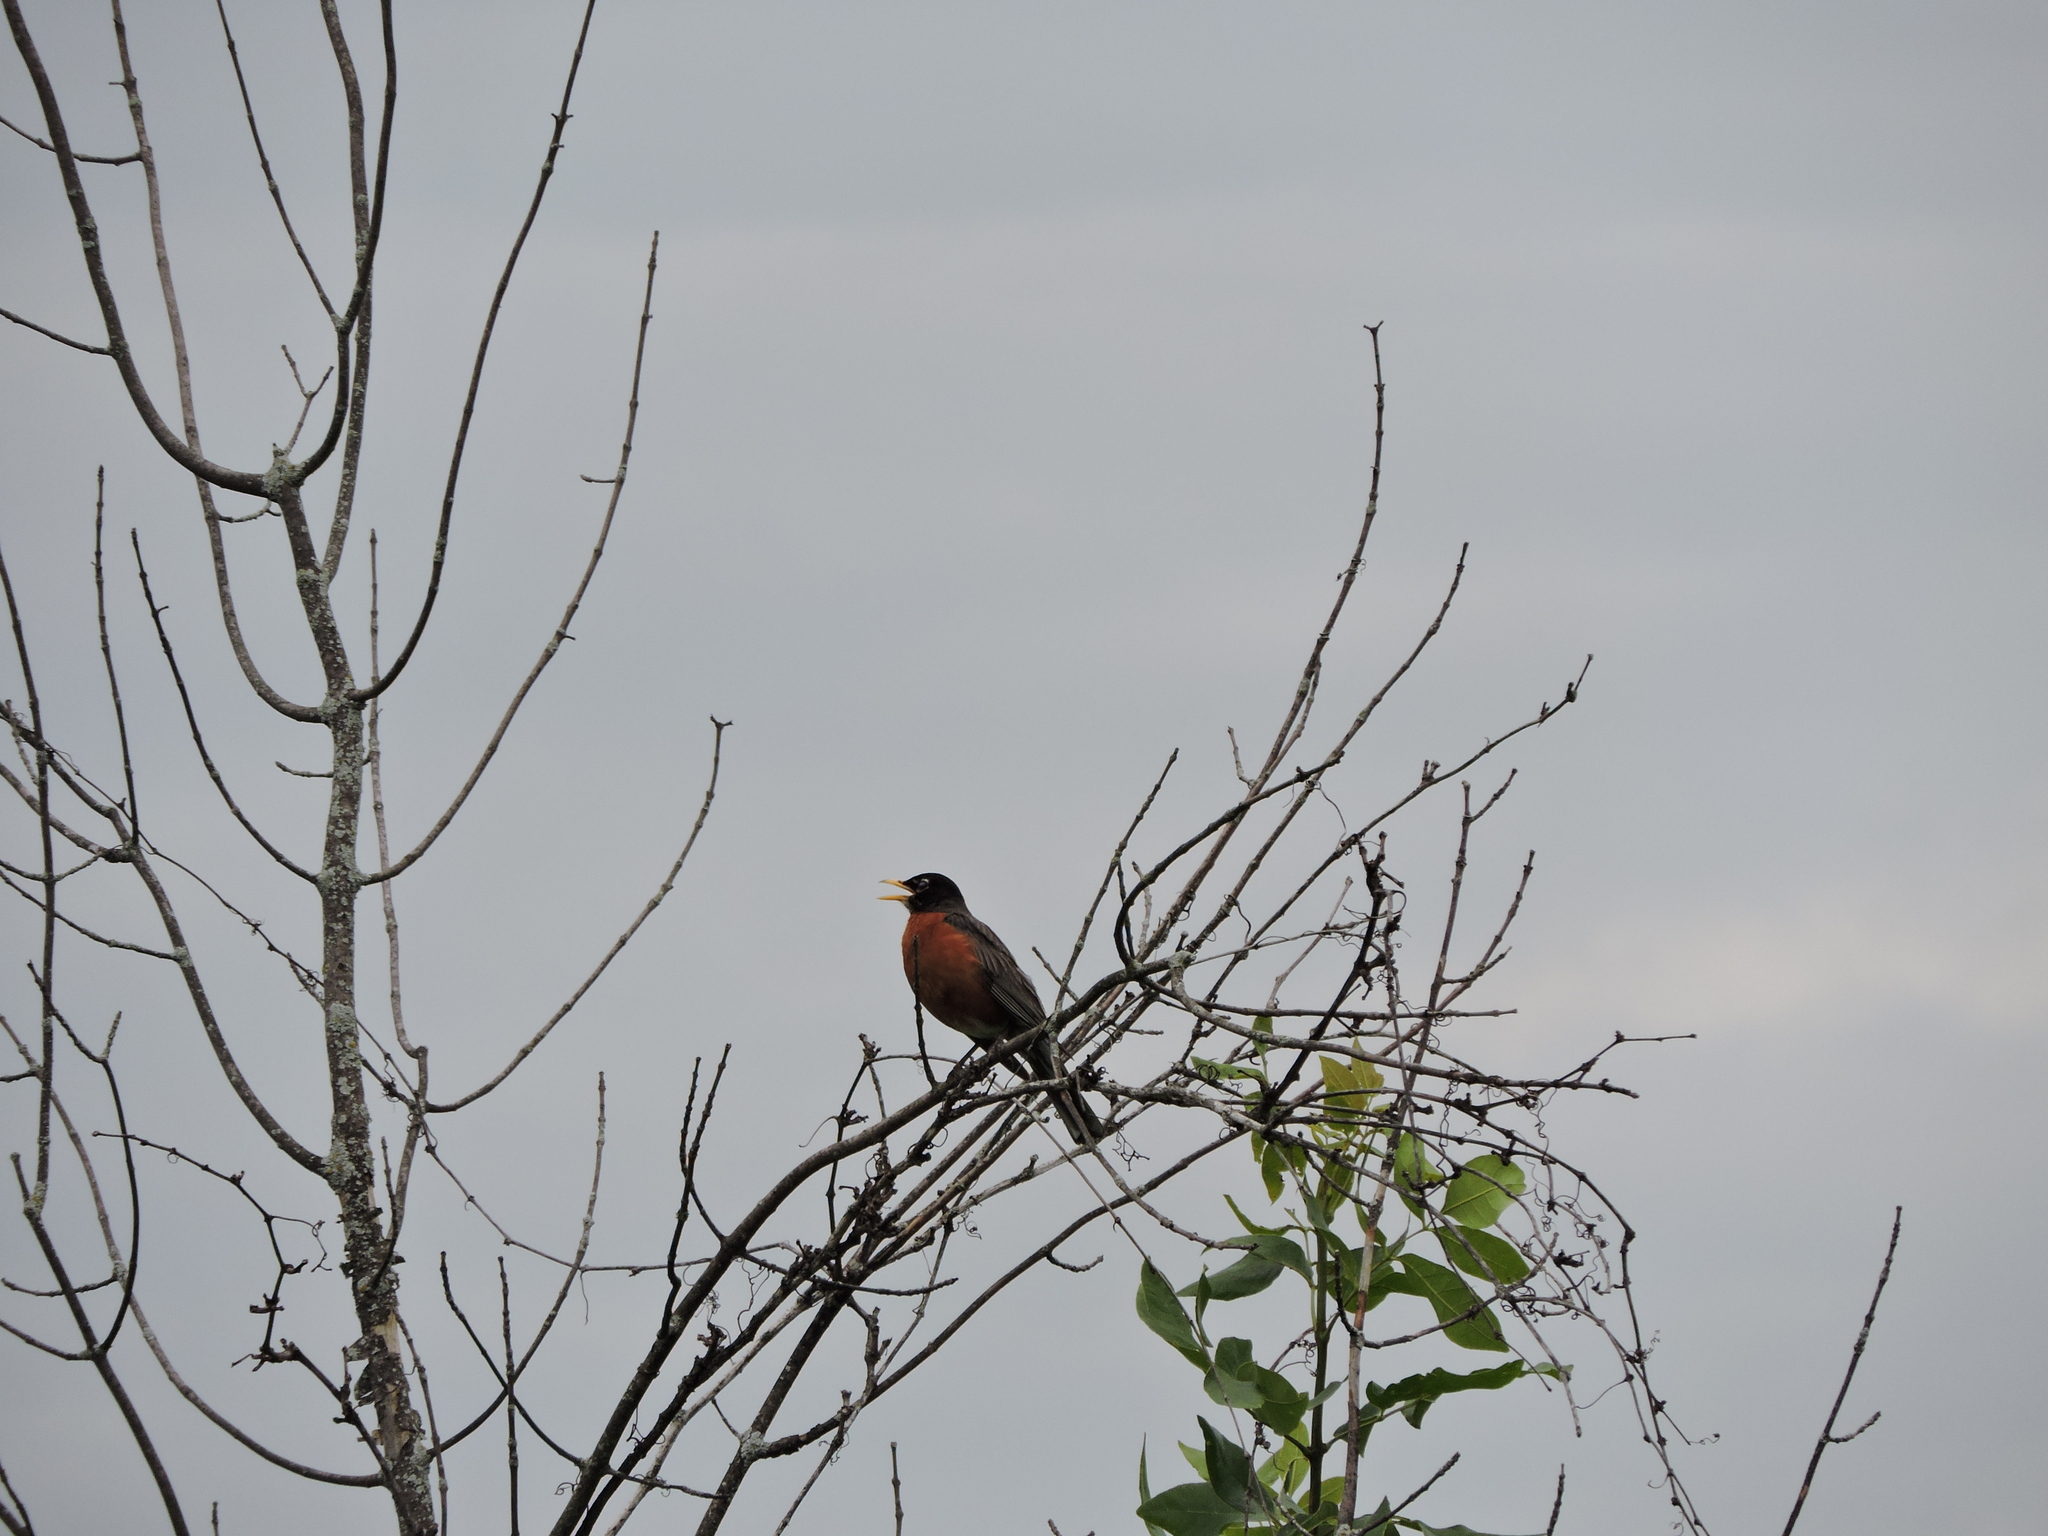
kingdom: Animalia
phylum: Chordata
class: Aves
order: Passeriformes
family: Turdidae
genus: Turdus
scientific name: Turdus migratorius
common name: American robin
